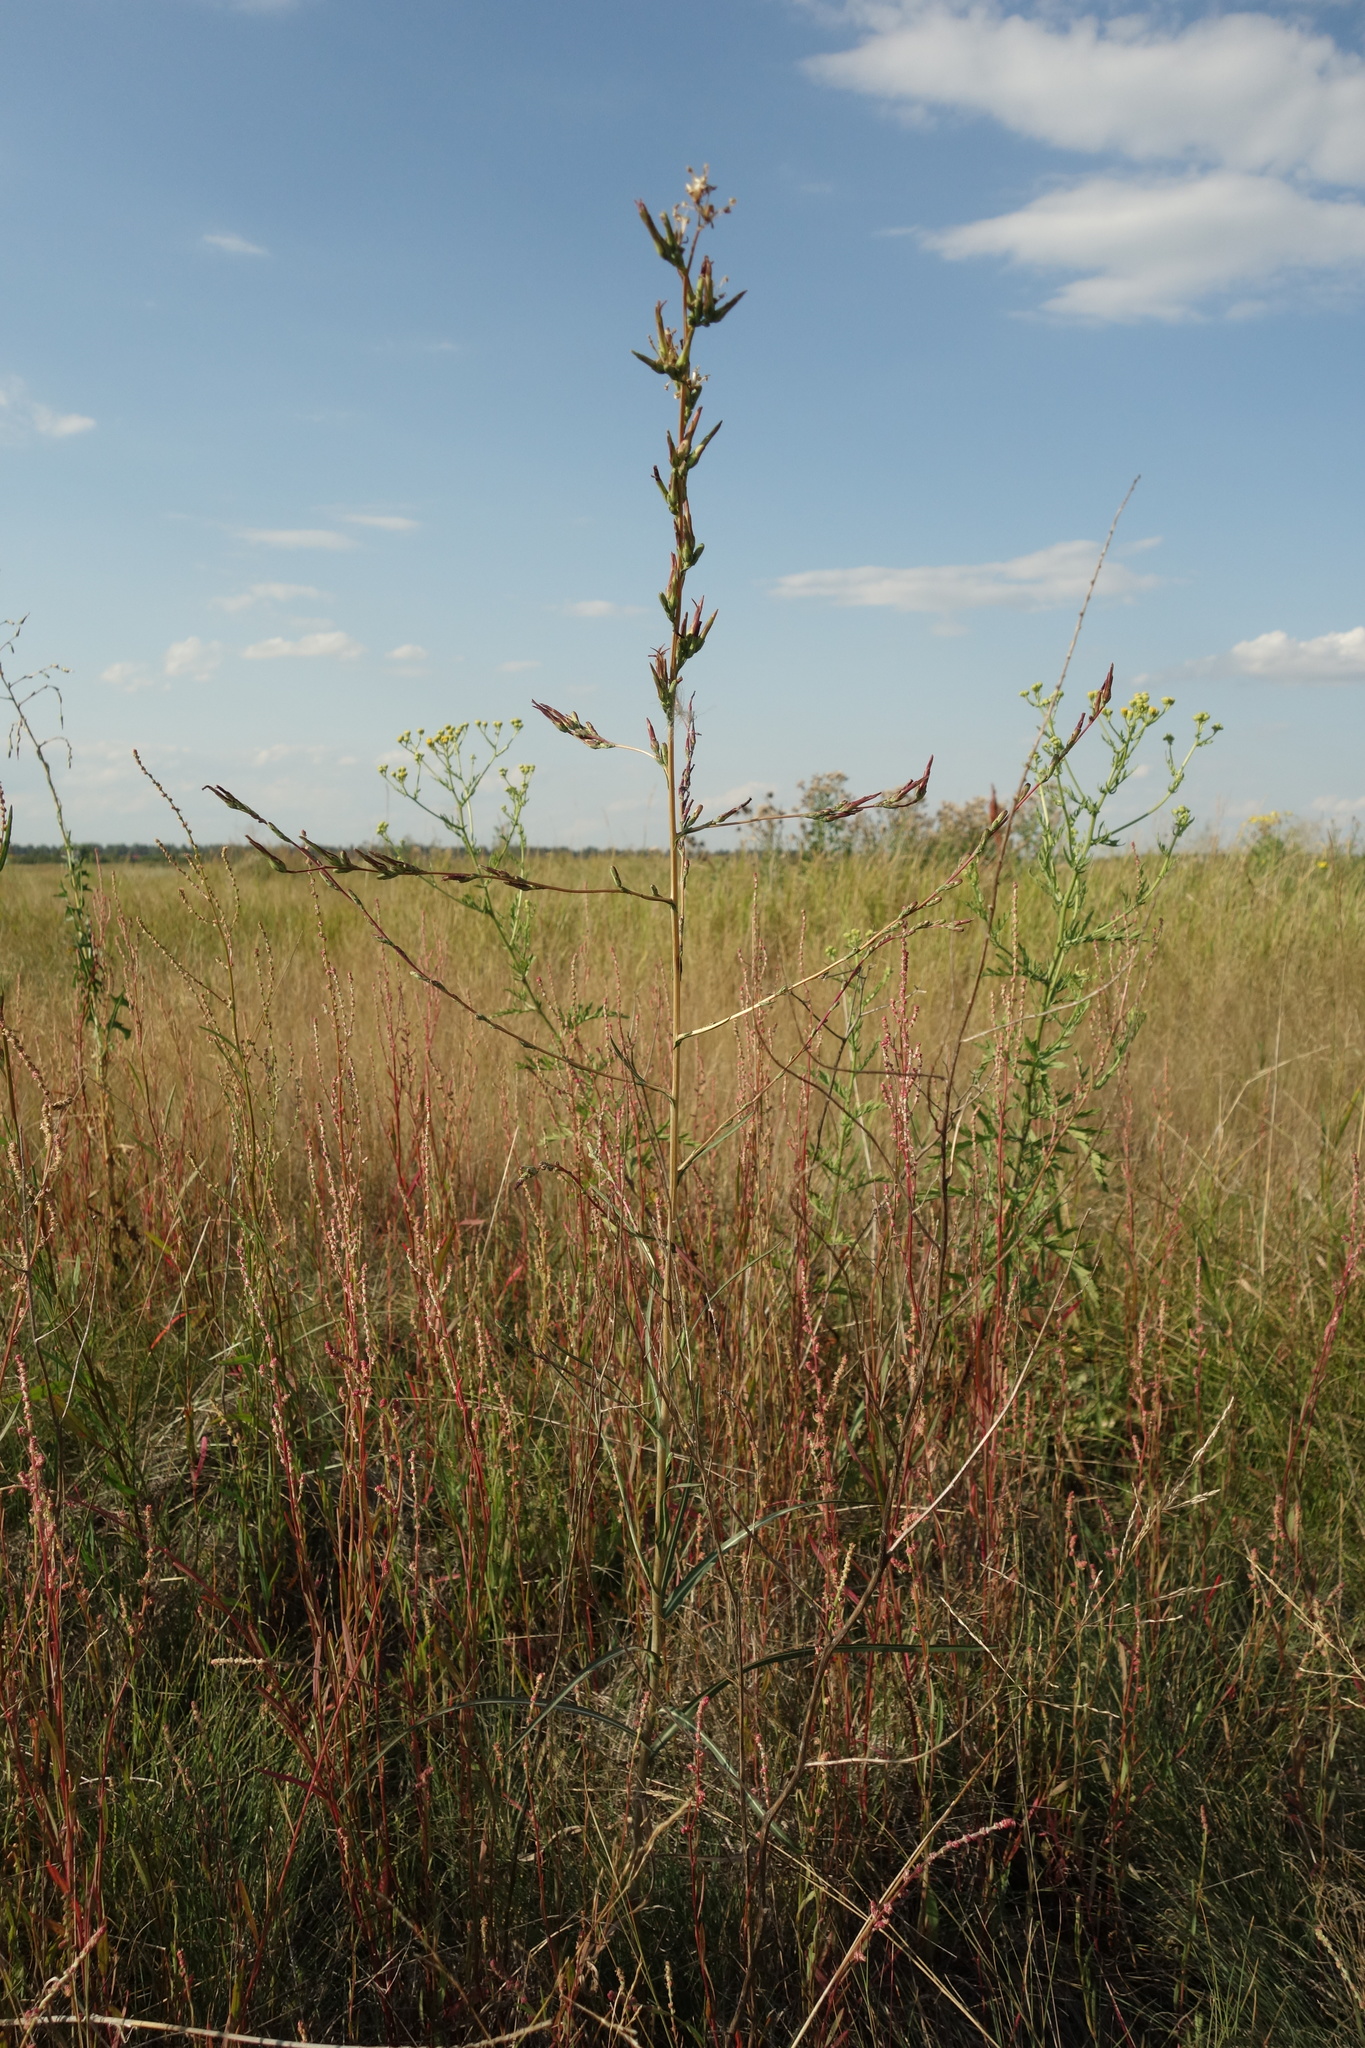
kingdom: Plantae
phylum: Tracheophyta
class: Magnoliopsida
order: Asterales
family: Asteraceae
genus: Lactuca
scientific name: Lactuca saligna
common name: Wild lettuce
